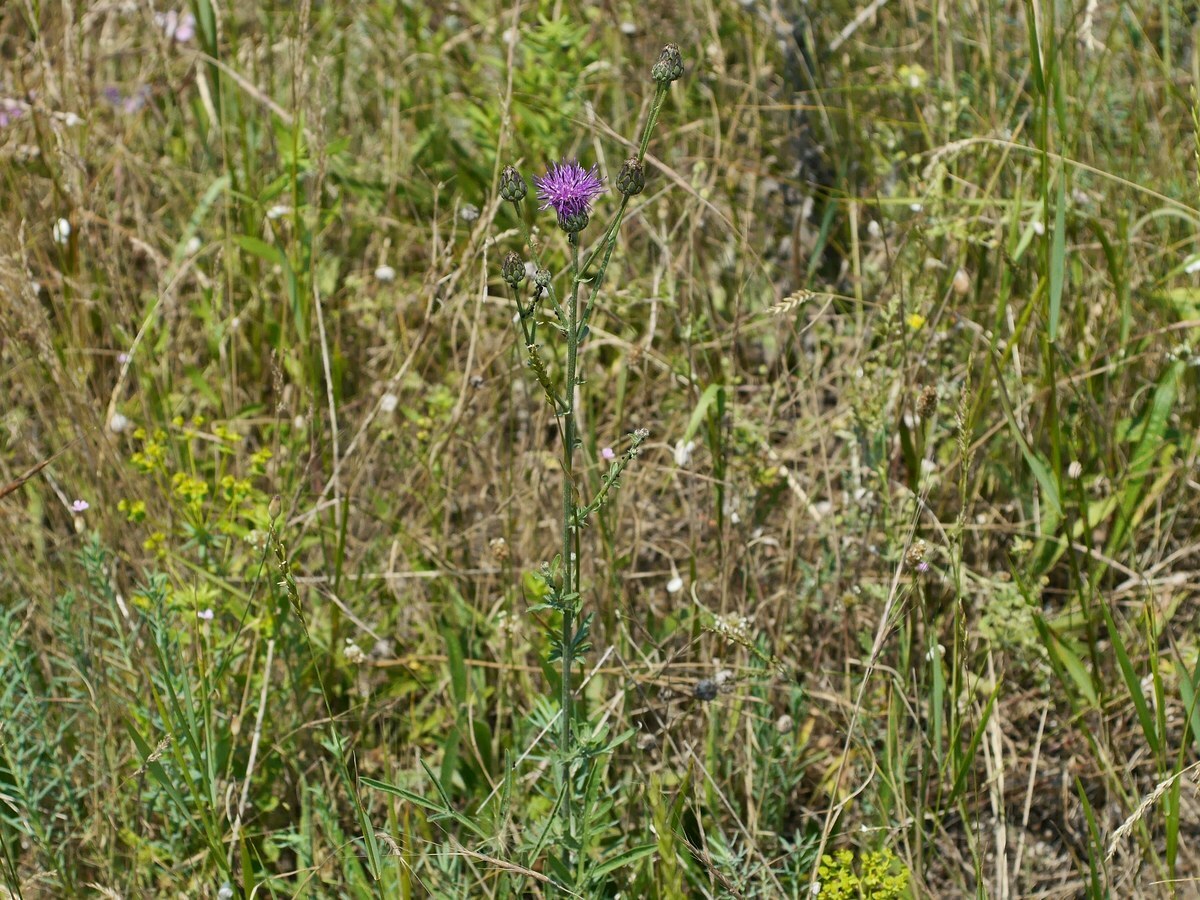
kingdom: Plantae
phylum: Tracheophyta
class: Magnoliopsida
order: Asterales
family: Asteraceae
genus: Centaurea
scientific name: Centaurea adpressa
